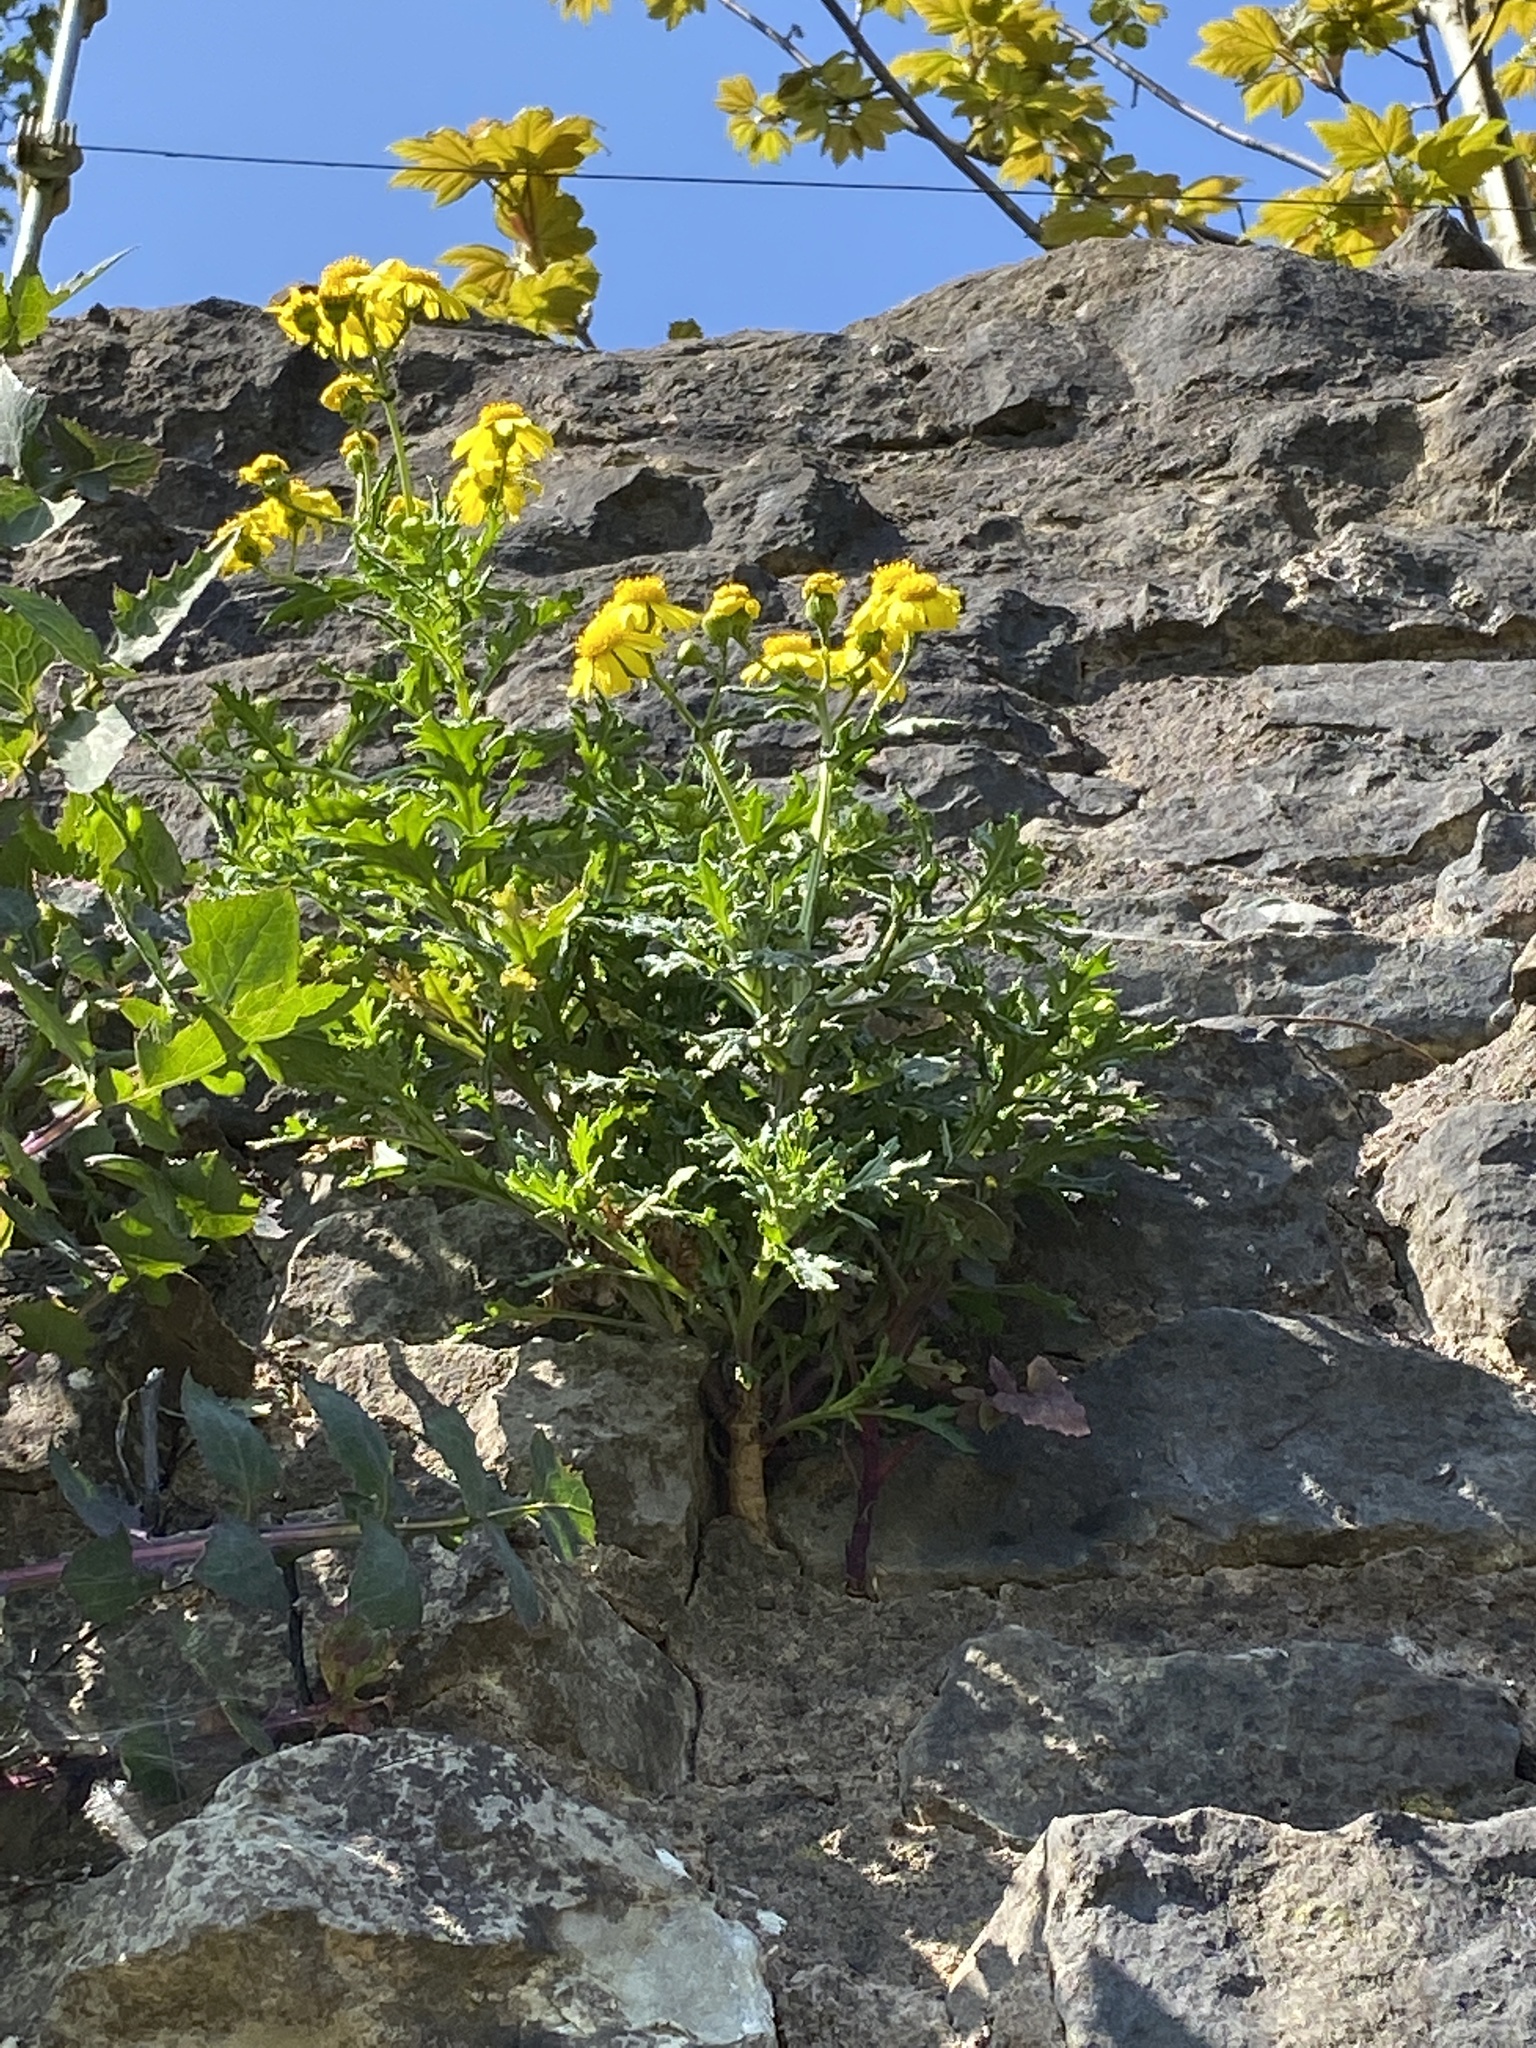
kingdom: Plantae
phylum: Tracheophyta
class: Magnoliopsida
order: Asterales
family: Asteraceae
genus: Jacobaea
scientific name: Jacobaea vulgaris
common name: Stinking willie
